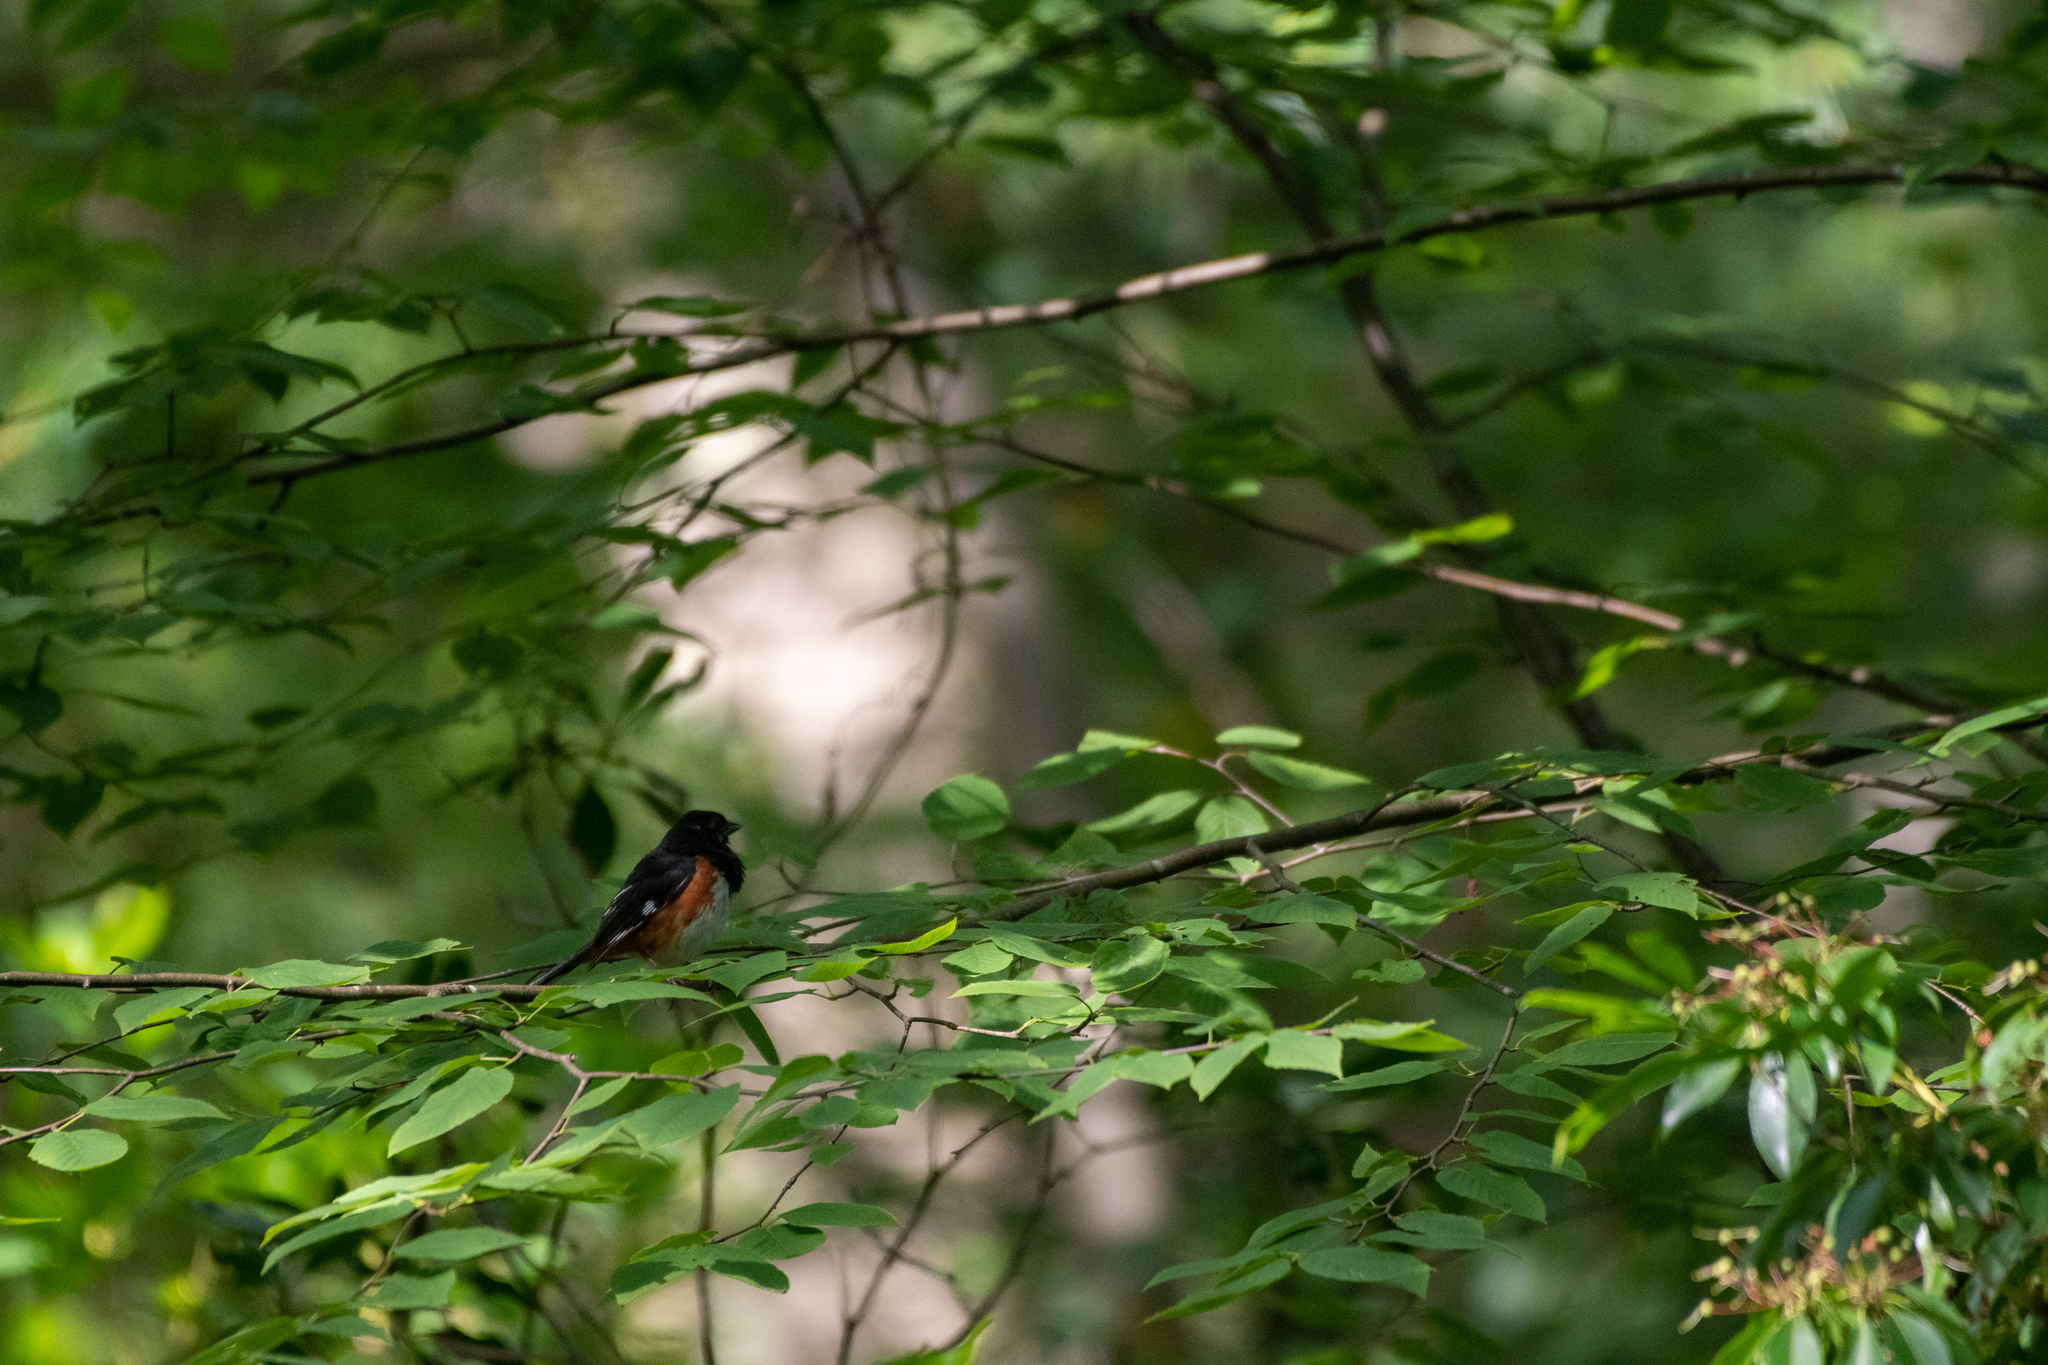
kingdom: Animalia
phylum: Chordata
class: Aves
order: Passeriformes
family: Passerellidae
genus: Pipilo
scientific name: Pipilo erythrophthalmus
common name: Eastern towhee
